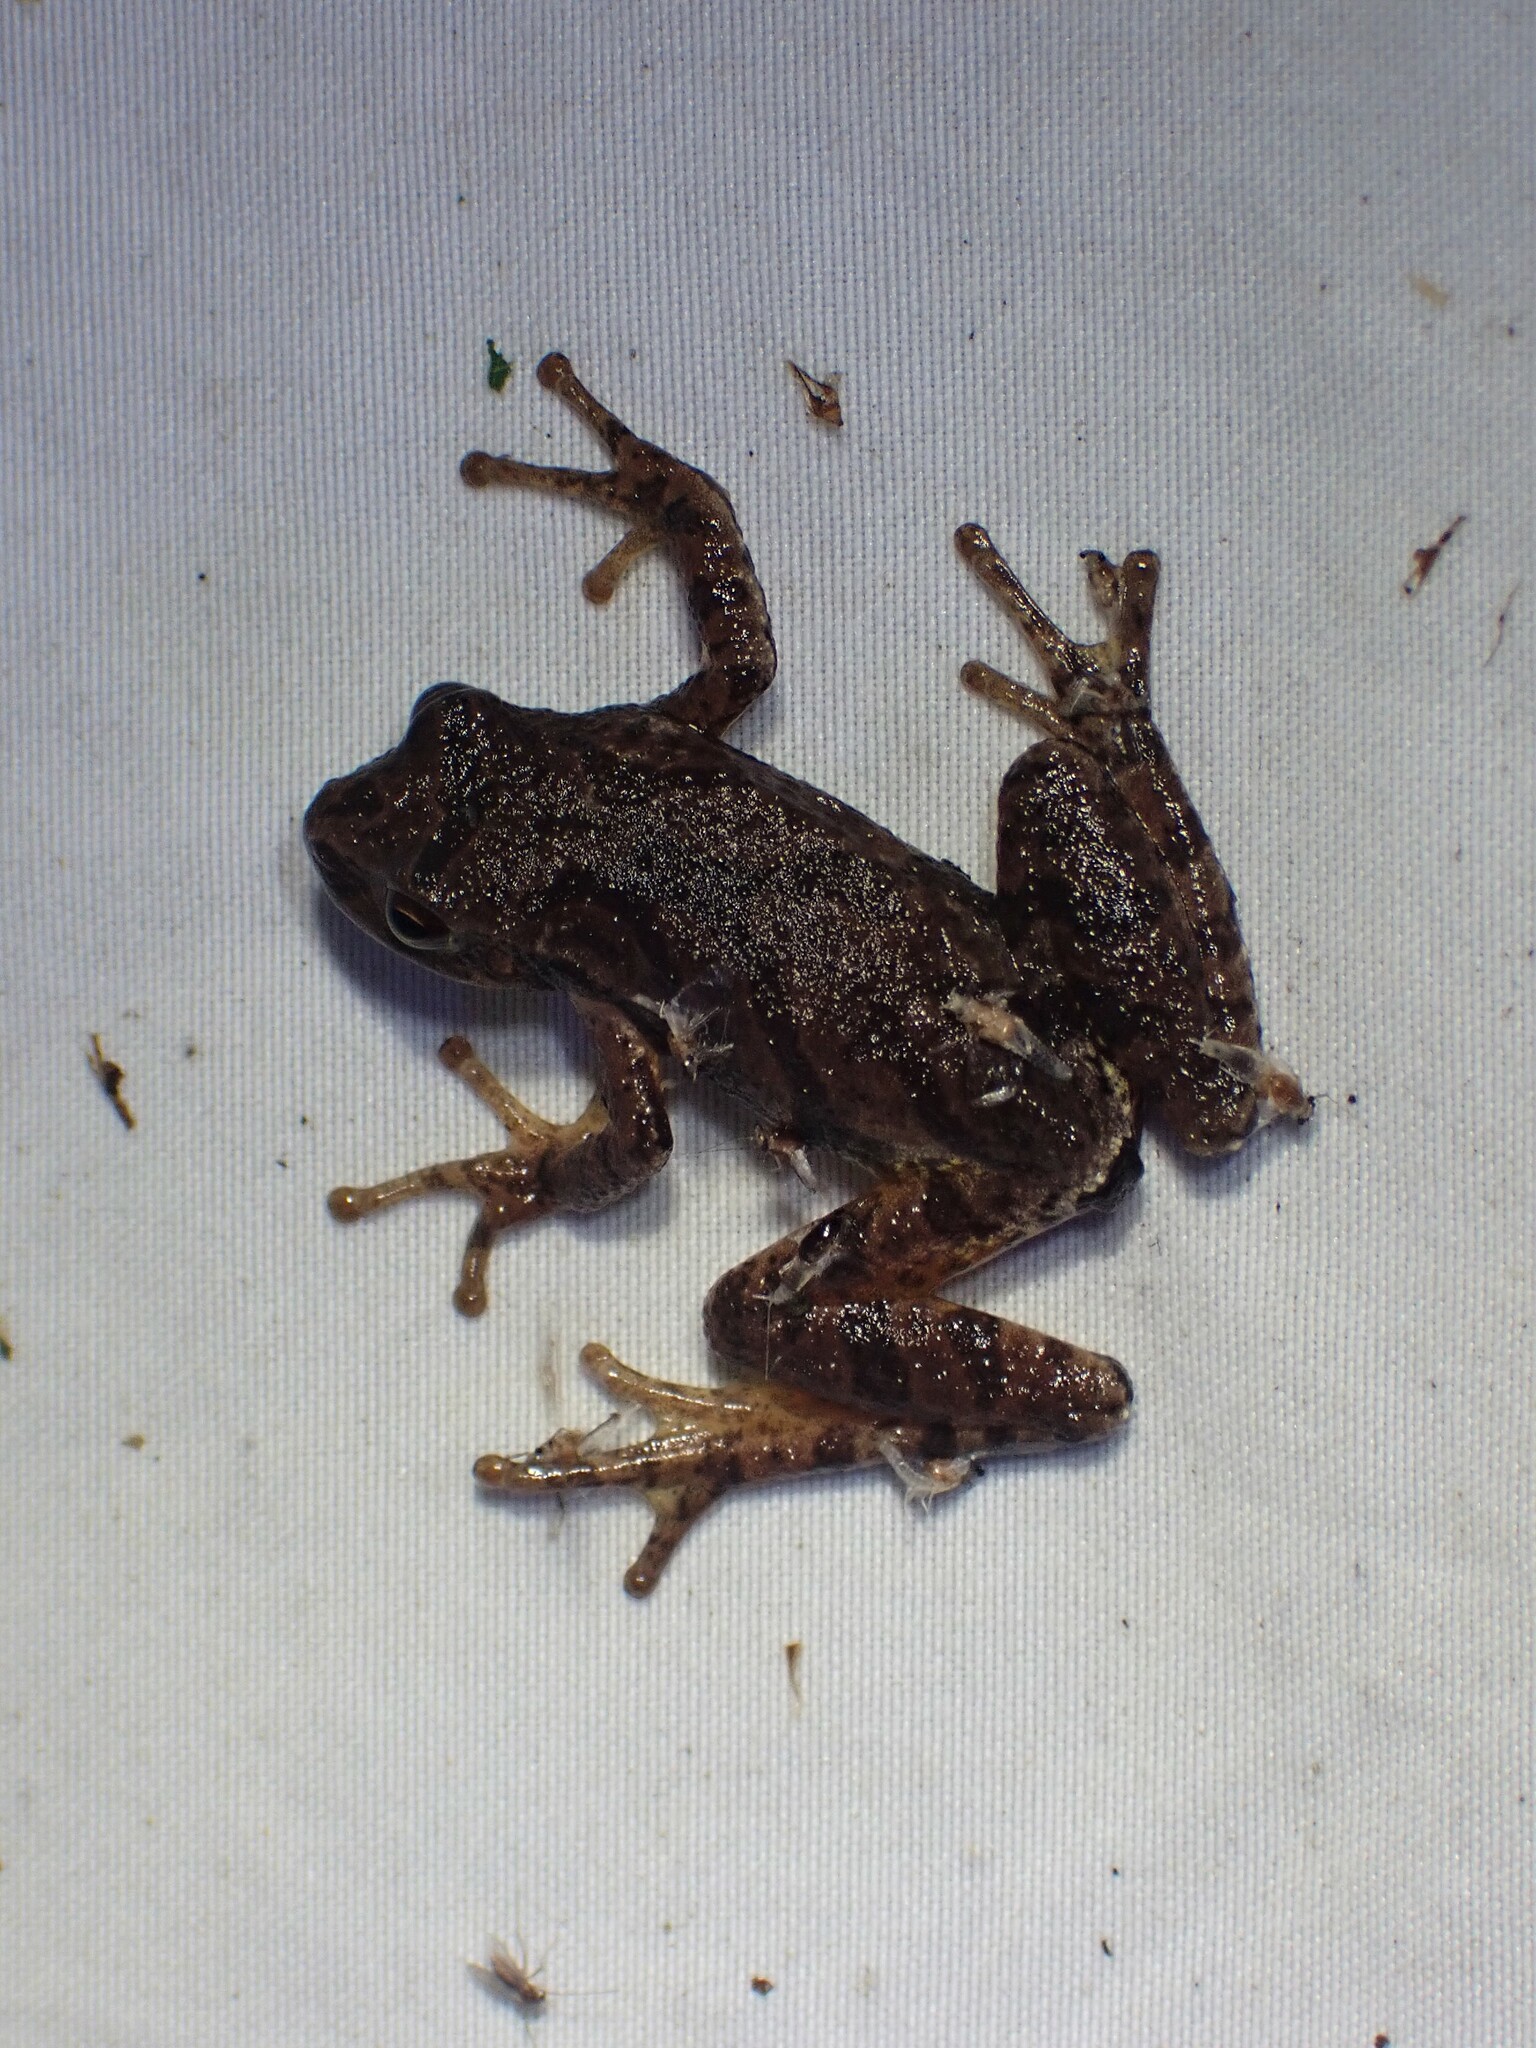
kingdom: Animalia
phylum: Chordata
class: Amphibia
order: Anura
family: Hylidae
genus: Pseudacris
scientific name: Pseudacris crucifer
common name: Spring peeper
